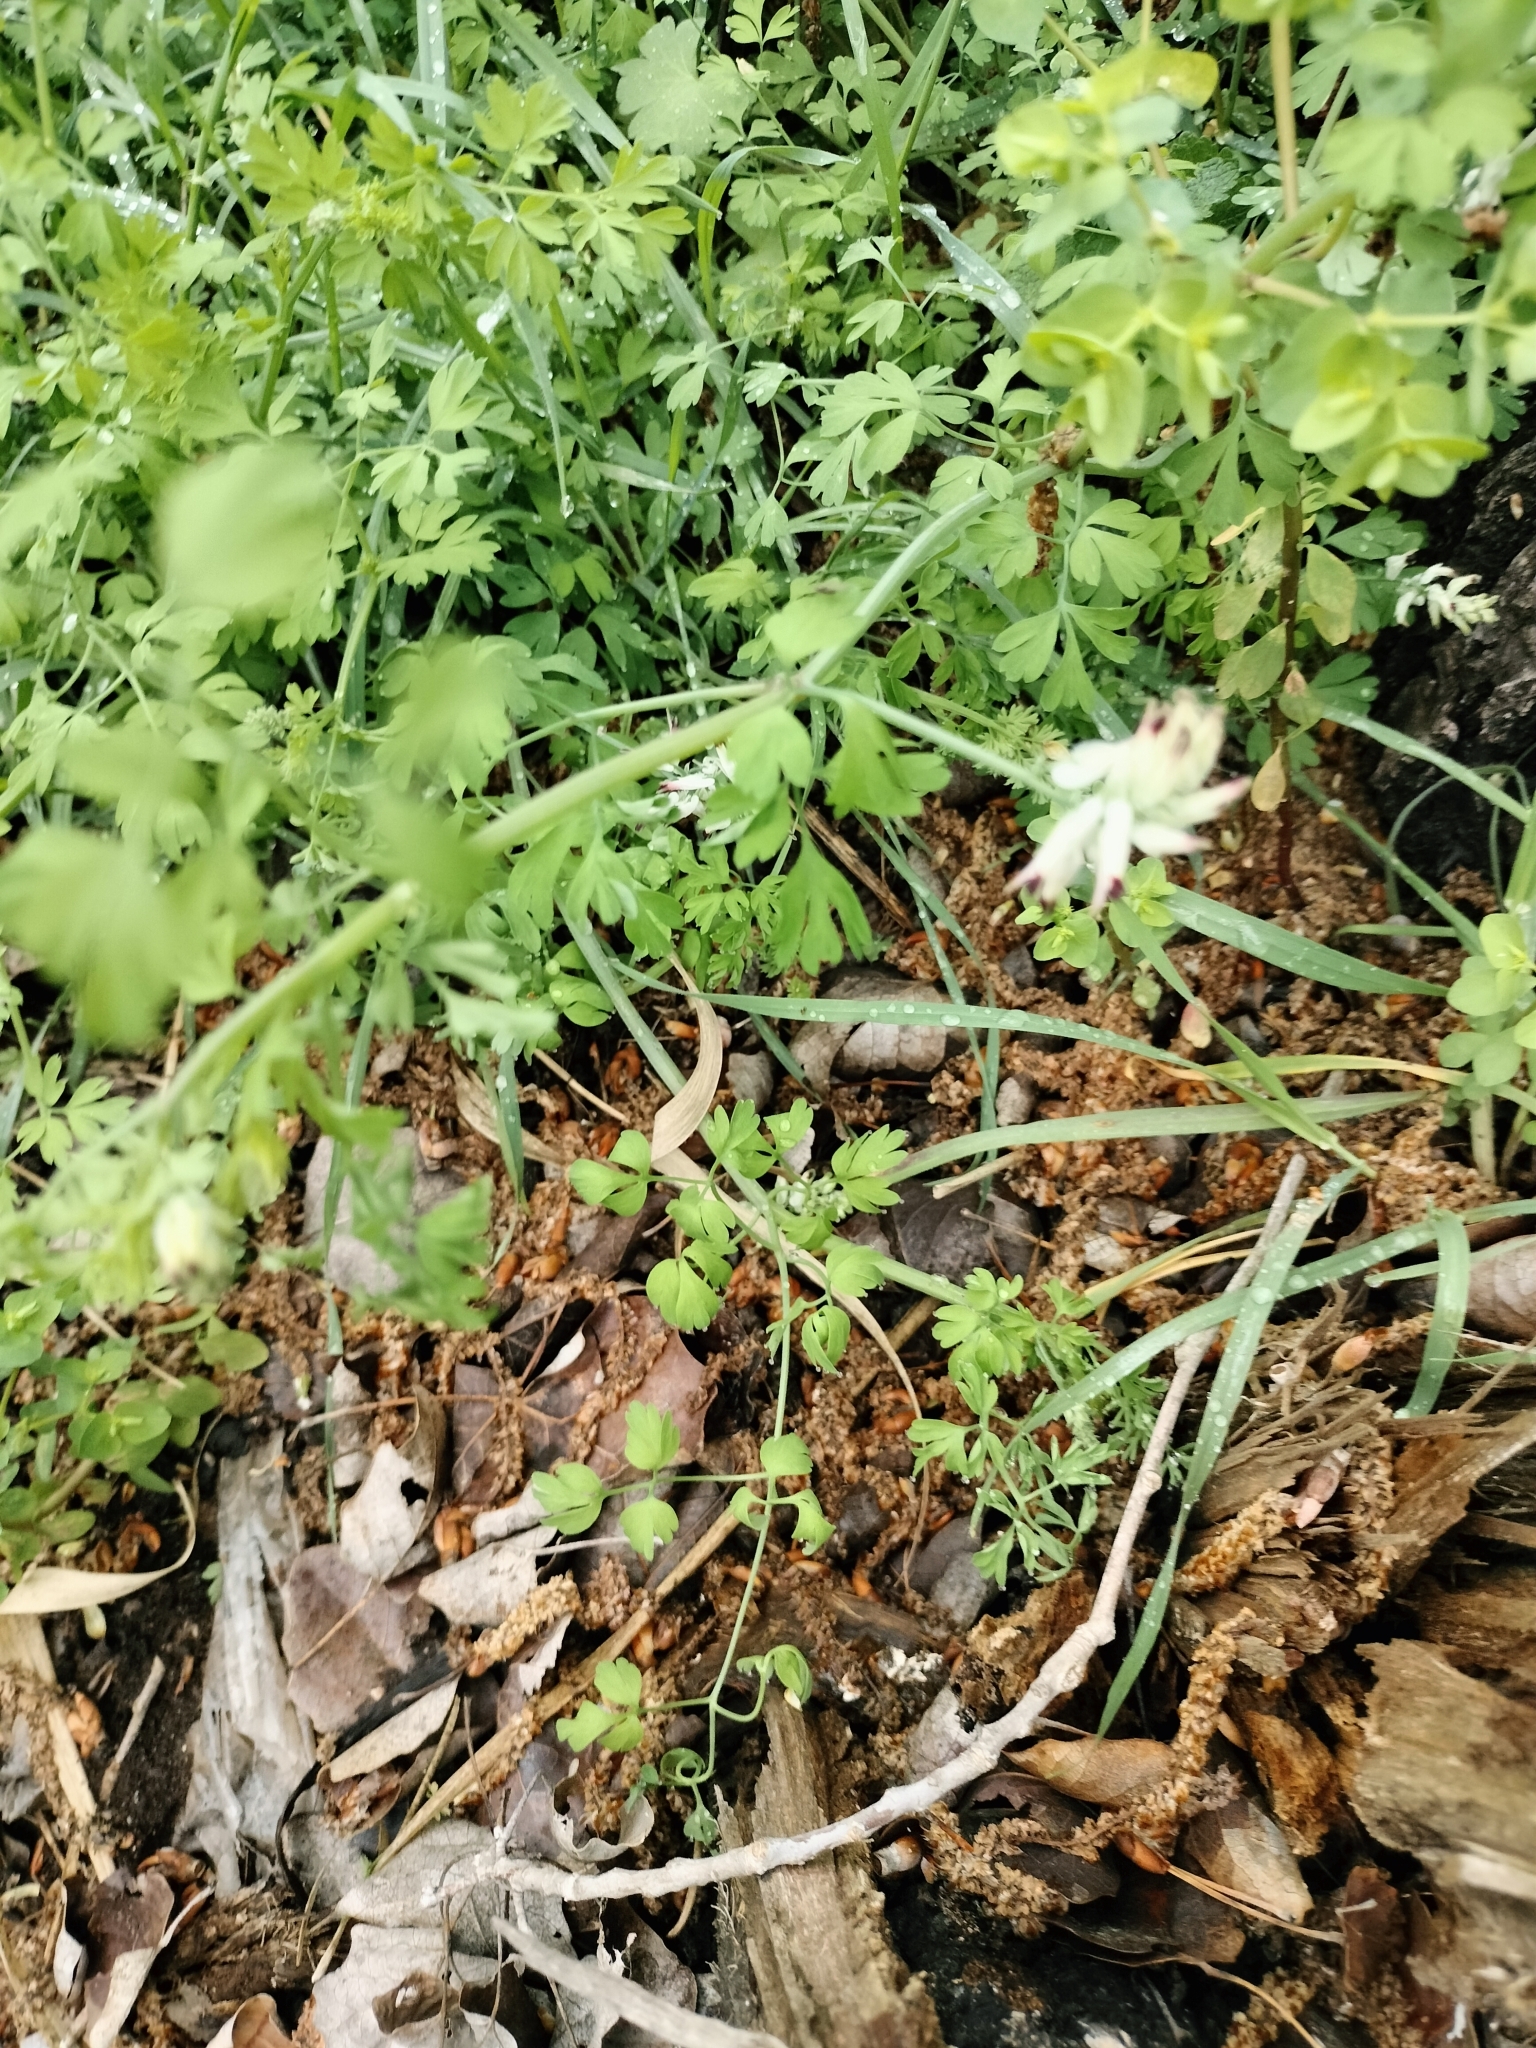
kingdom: Plantae
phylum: Tracheophyta
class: Magnoliopsida
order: Ranunculales
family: Papaveraceae
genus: Fumaria
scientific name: Fumaria capreolata
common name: White ramping-fumitory
